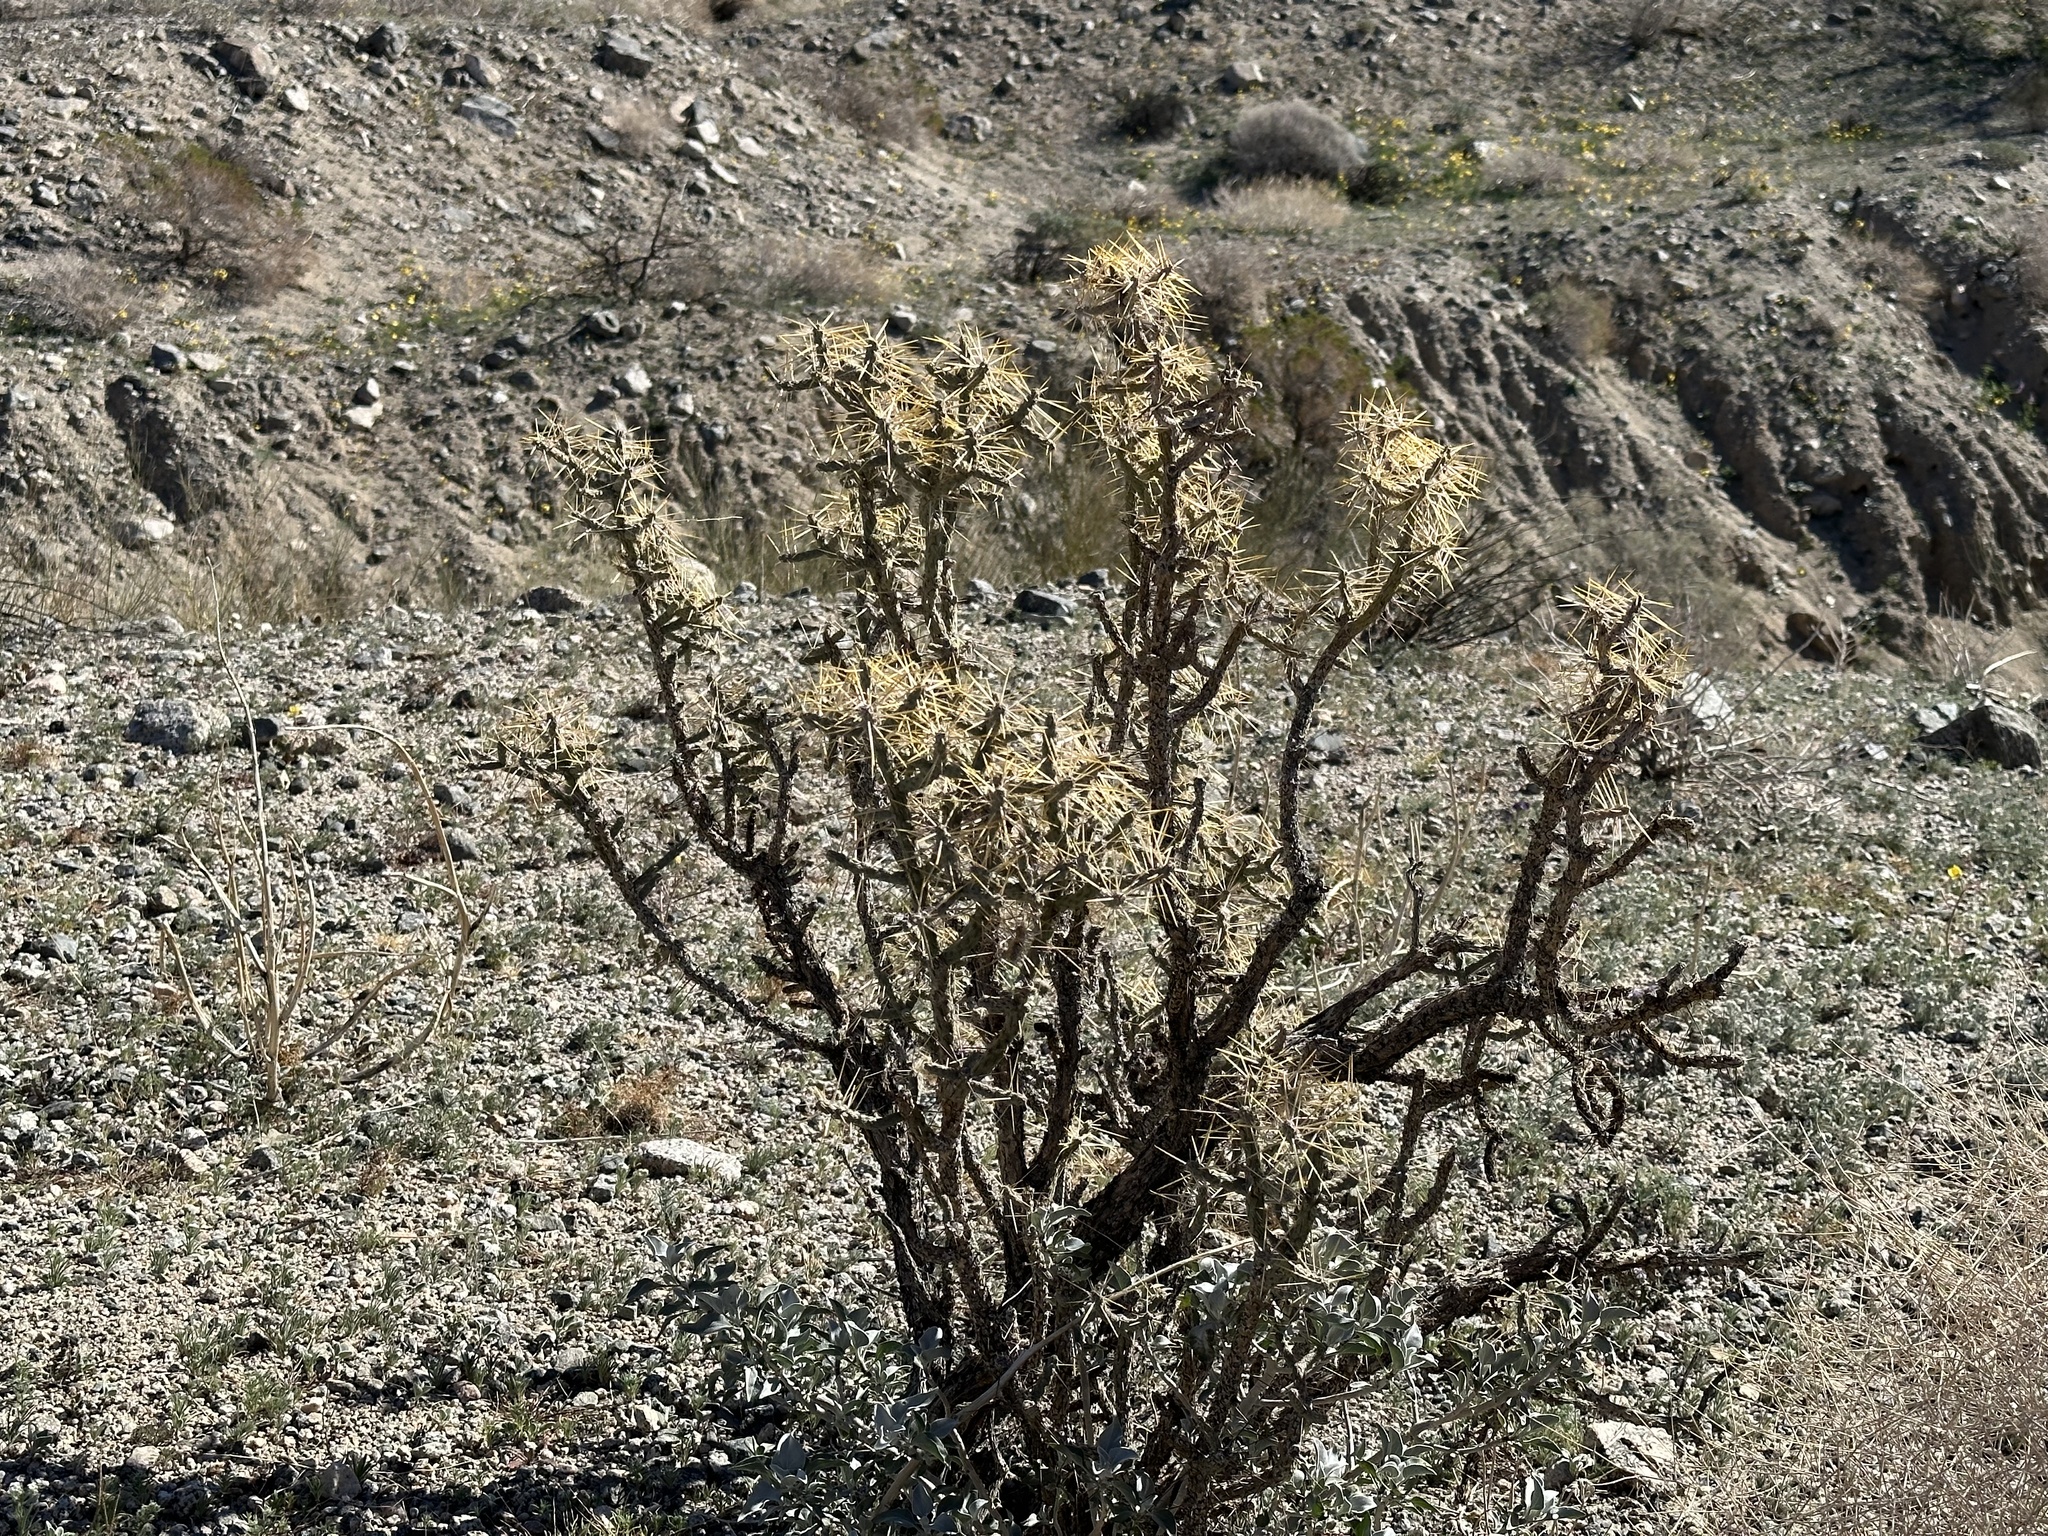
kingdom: Plantae
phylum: Tracheophyta
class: Magnoliopsida
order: Caryophyllales
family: Cactaceae
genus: Cylindropuntia
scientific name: Cylindropuntia ramosissima
